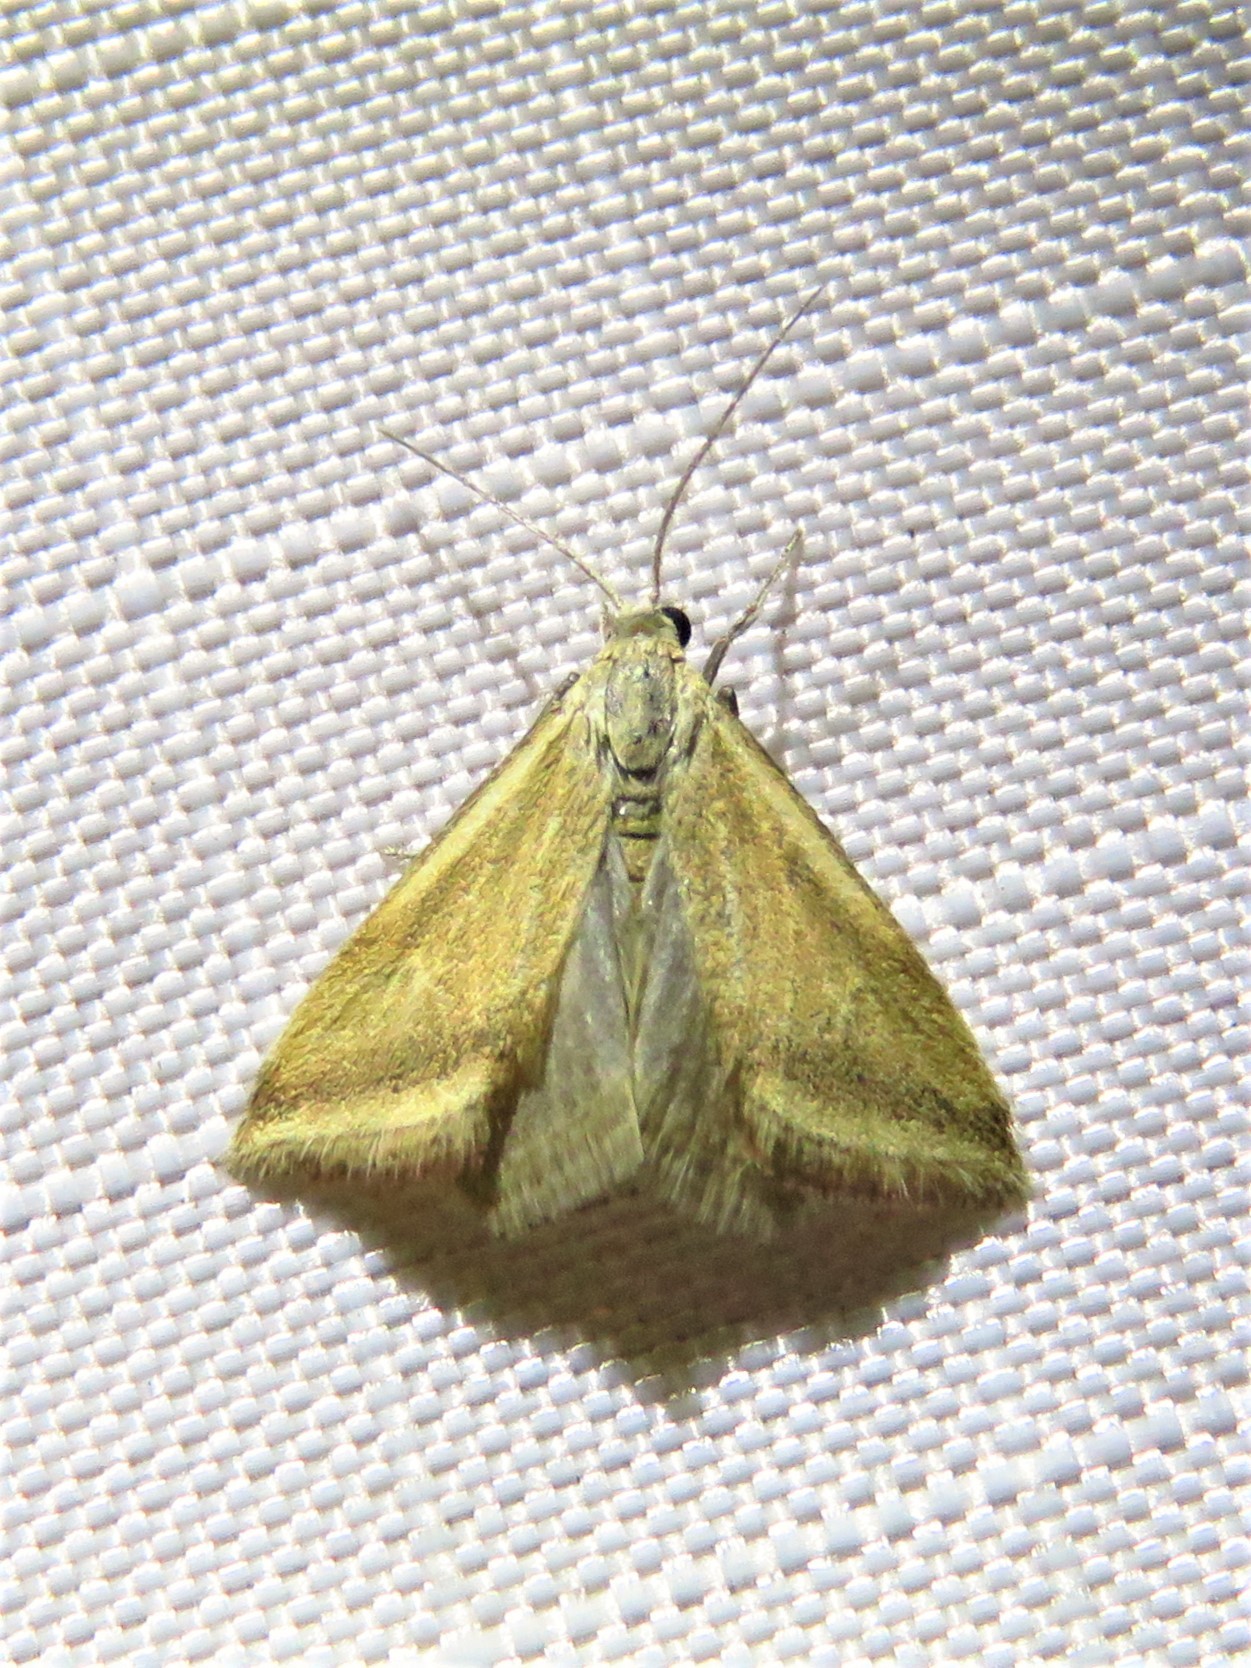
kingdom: Animalia
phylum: Arthropoda
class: Insecta
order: Lepidoptera
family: Crambidae
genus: Microtheoris
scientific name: Microtheoris vibicalis
